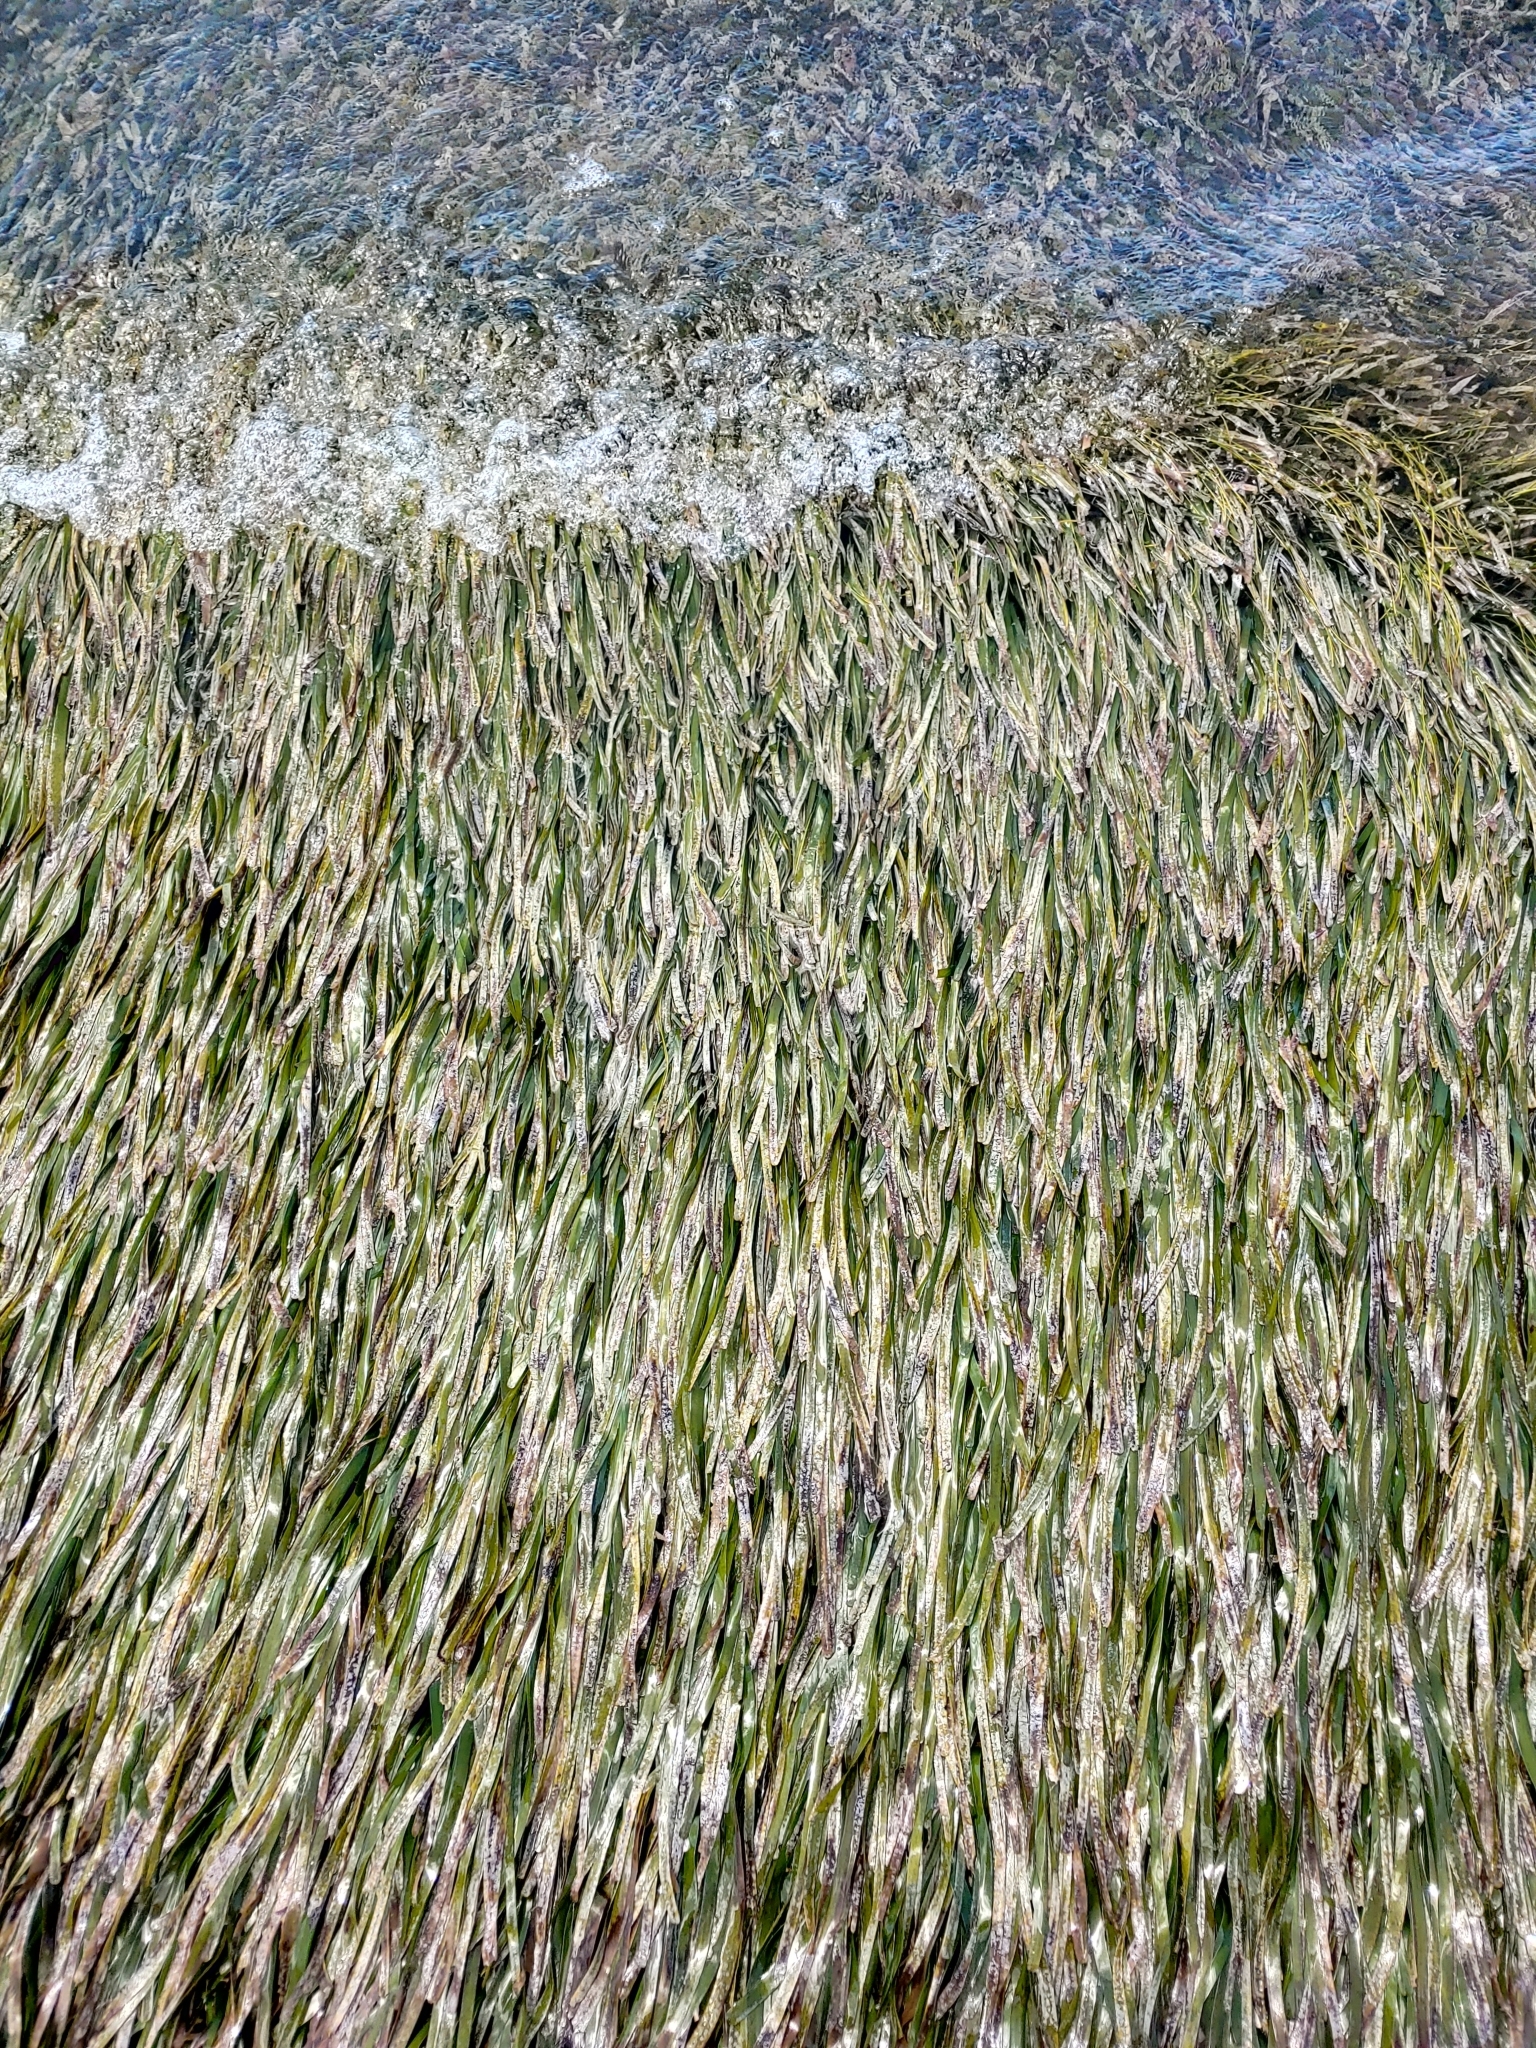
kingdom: Plantae
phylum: Tracheophyta
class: Liliopsida
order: Alismatales
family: Hydrocharitaceae
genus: Thalassia
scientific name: Thalassia testudinum
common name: Species code: tt
